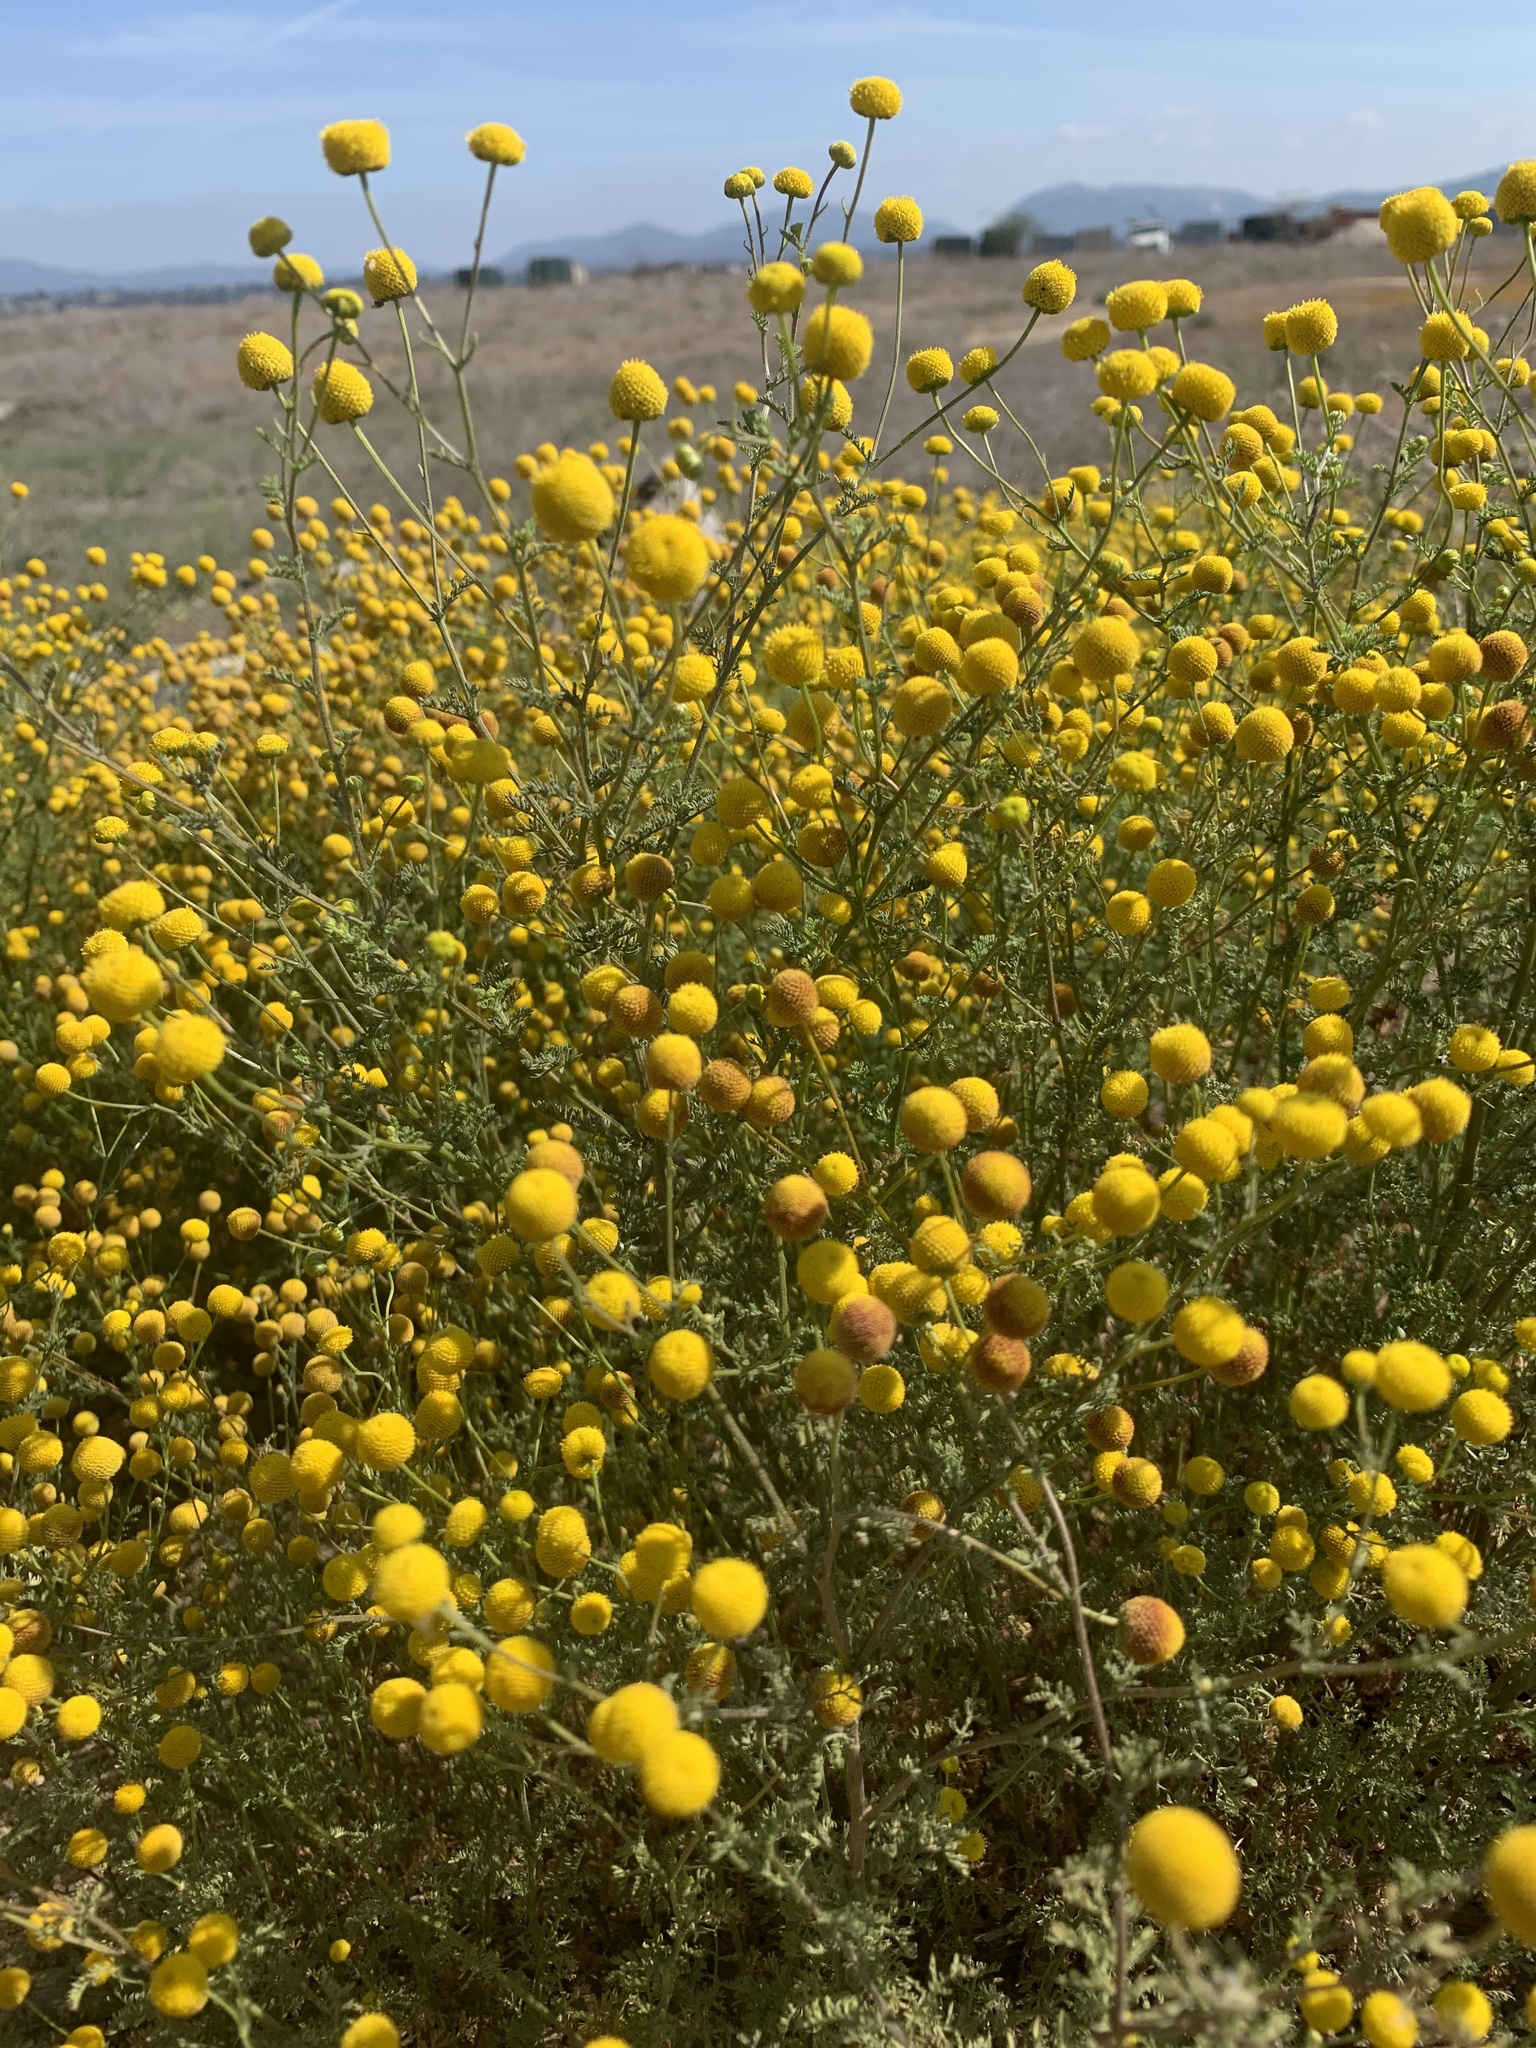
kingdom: Plantae
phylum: Tracheophyta
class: Magnoliopsida
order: Asterales
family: Asteraceae
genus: Oncosiphon
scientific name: Oncosiphon pilulifer
